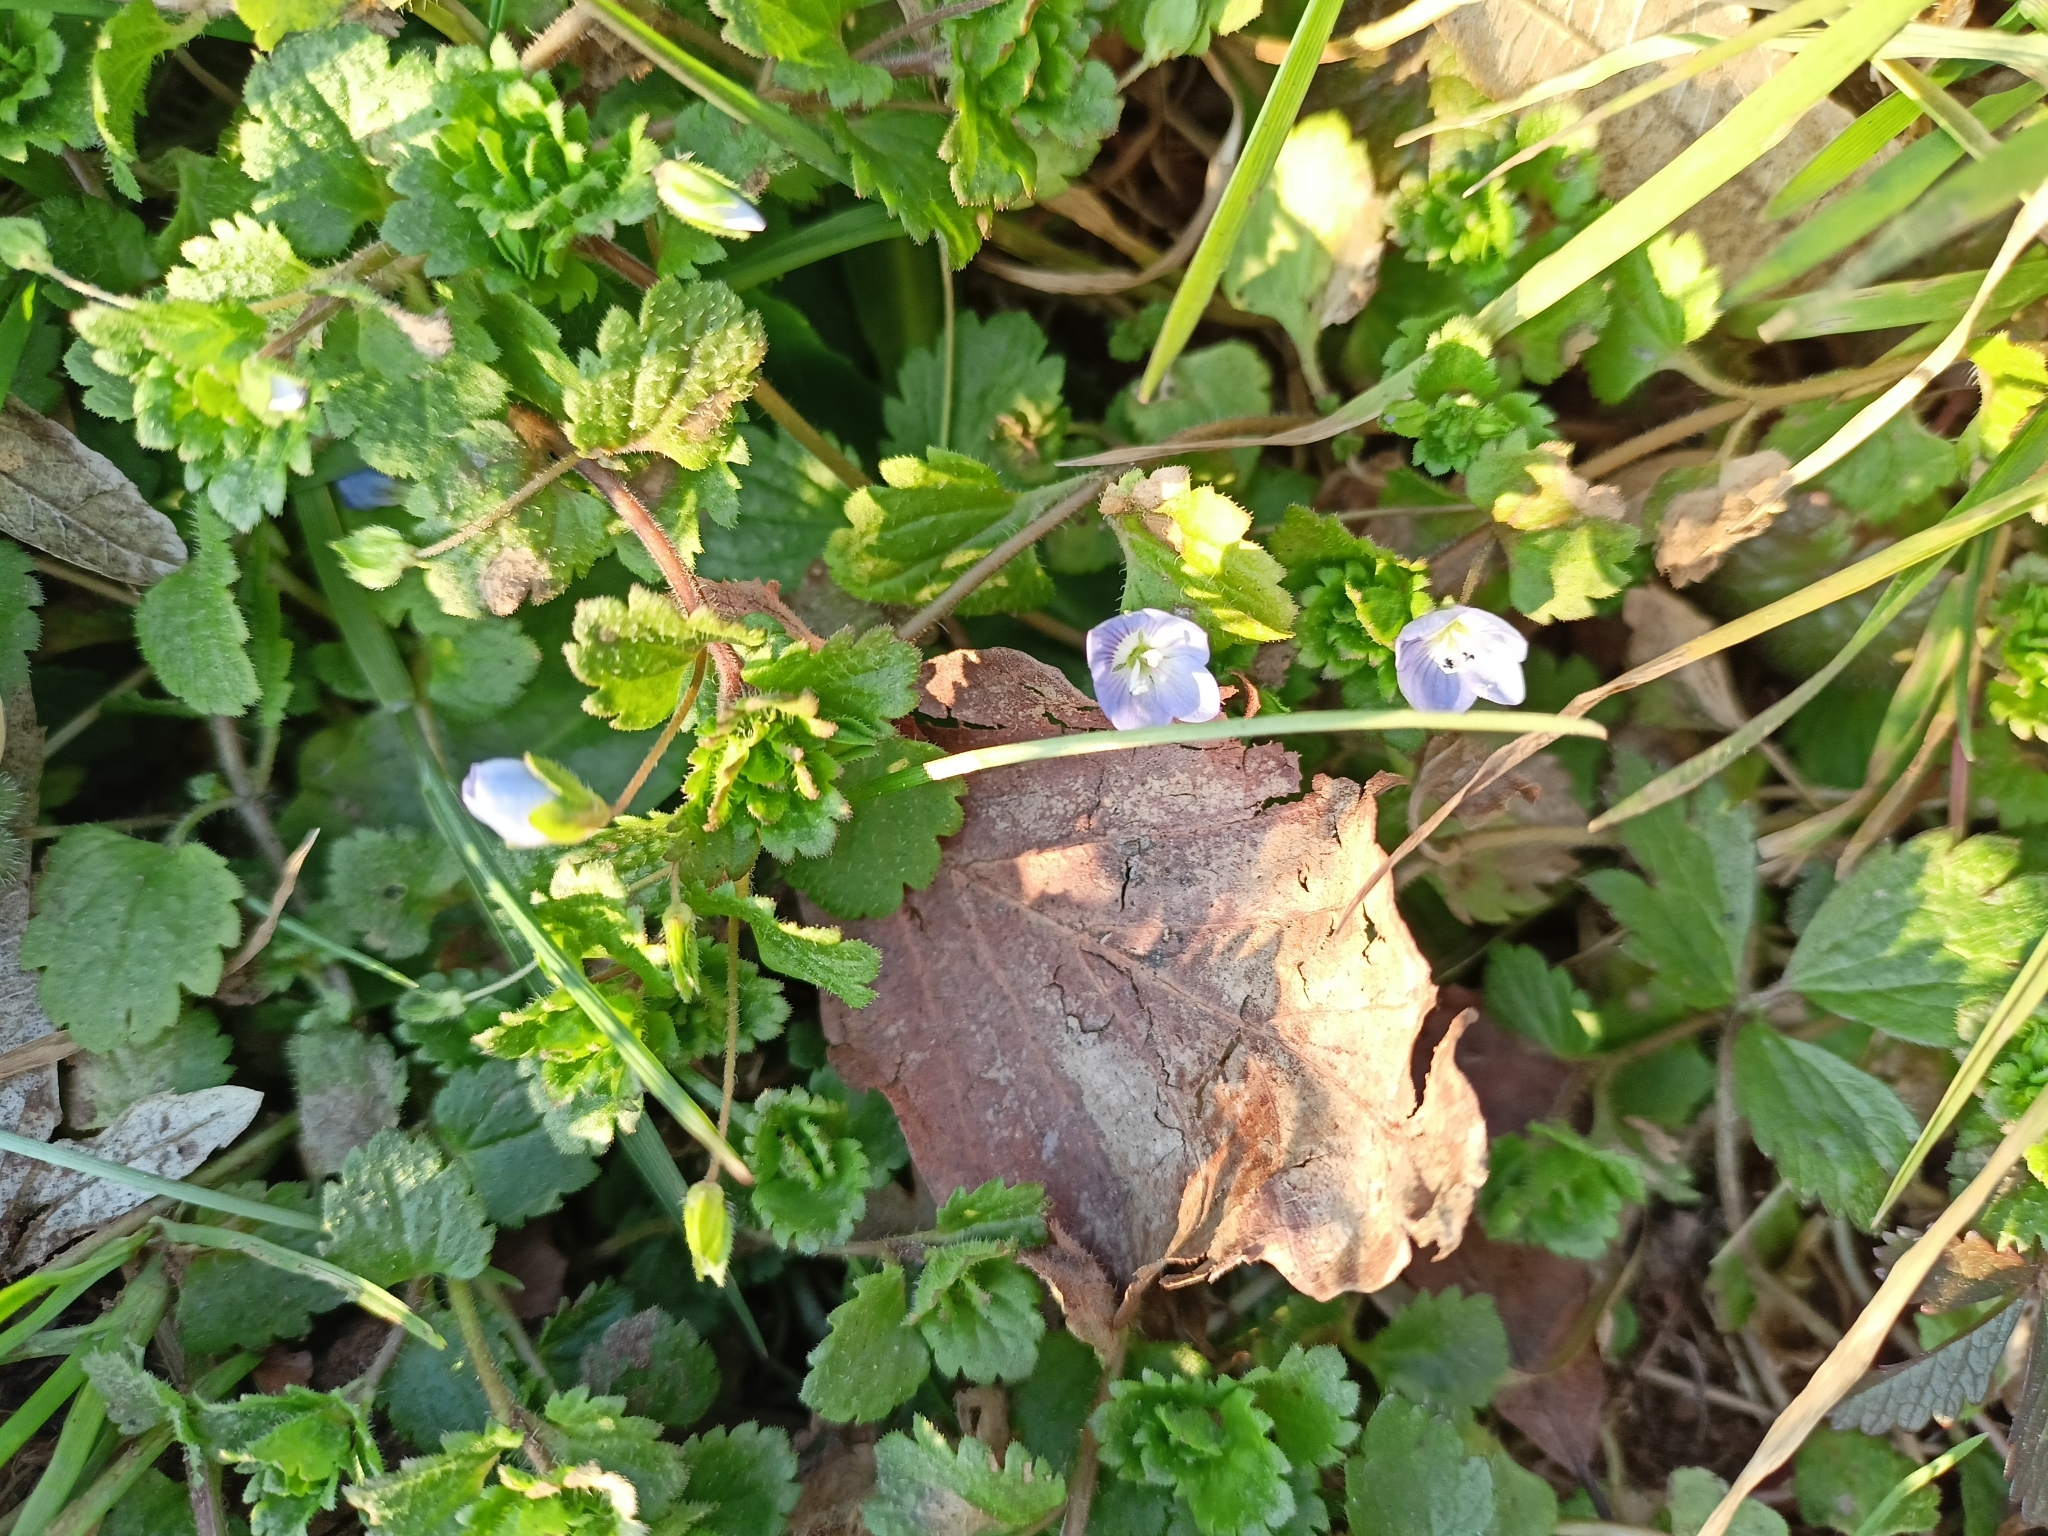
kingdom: Plantae
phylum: Tracheophyta
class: Magnoliopsida
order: Lamiales
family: Plantaginaceae
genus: Veronica
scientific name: Veronica persica
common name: Common field-speedwell
